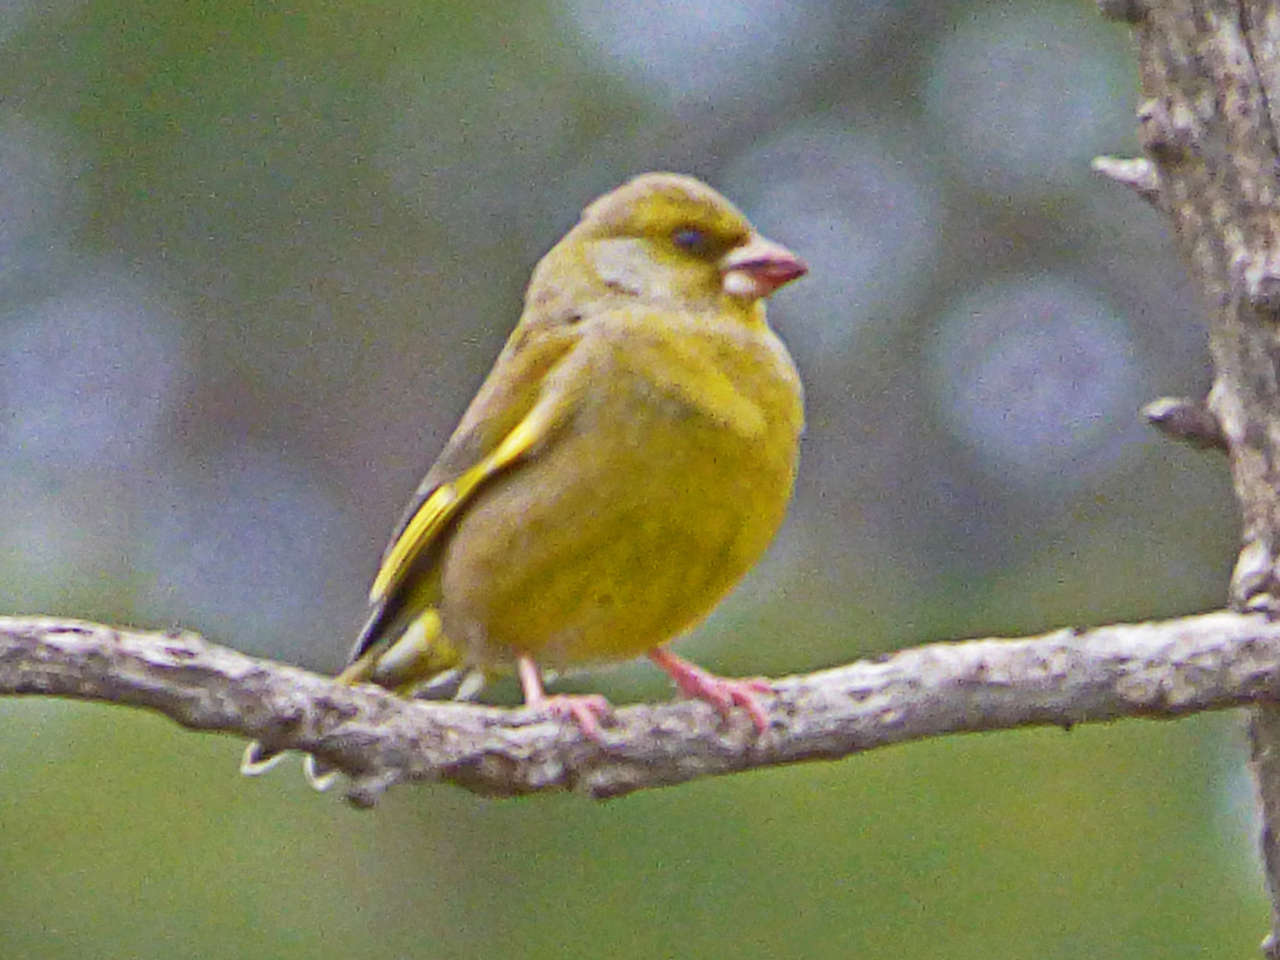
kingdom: Plantae
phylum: Tracheophyta
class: Liliopsida
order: Poales
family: Poaceae
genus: Chloris
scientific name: Chloris chloris
